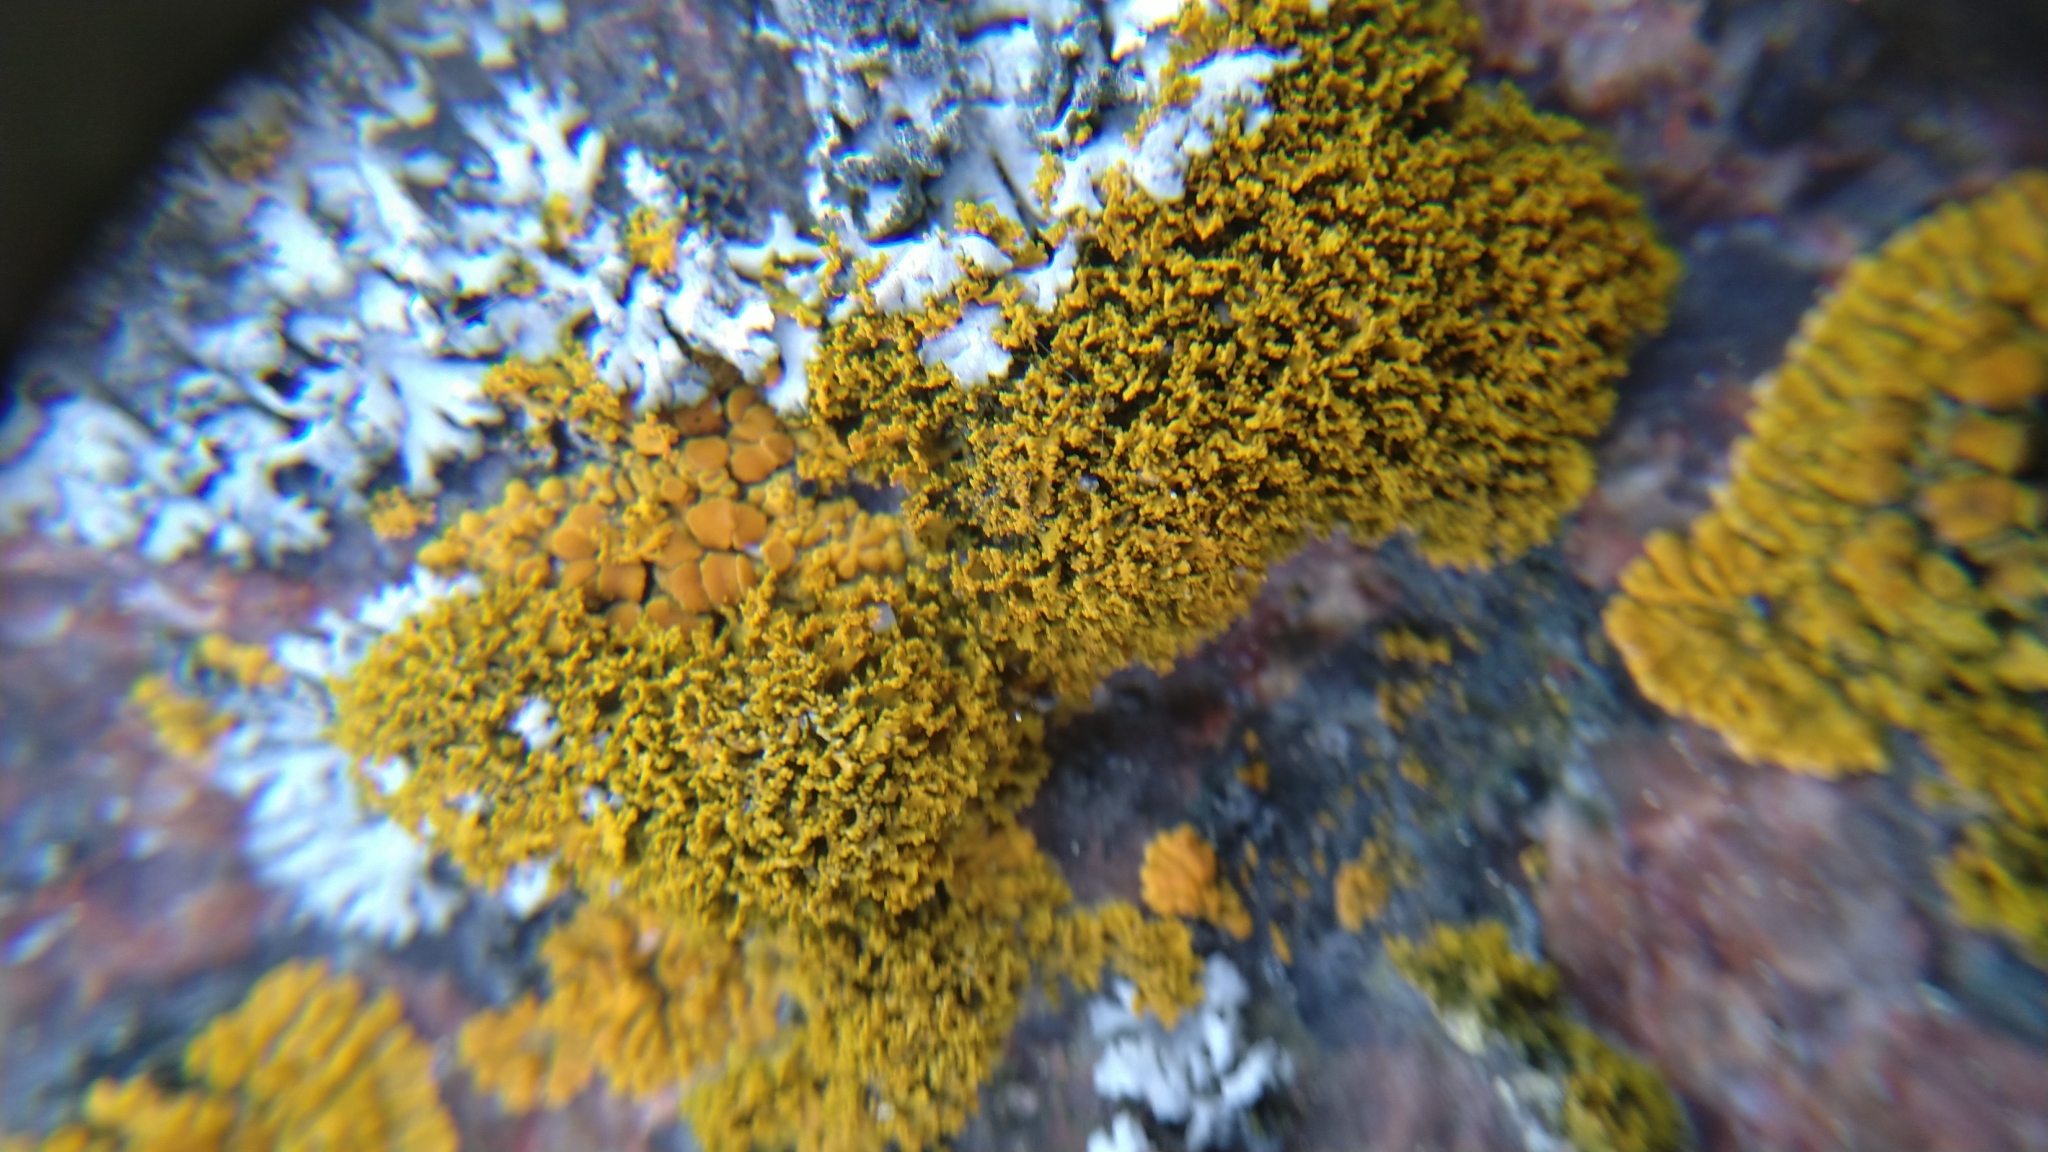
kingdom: Fungi
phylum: Ascomycota
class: Lecanoromycetes
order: Teloschistales
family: Teloschistaceae
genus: Polycauliona
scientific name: Polycauliona candelaria
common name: Shrubby sunburst lichen
